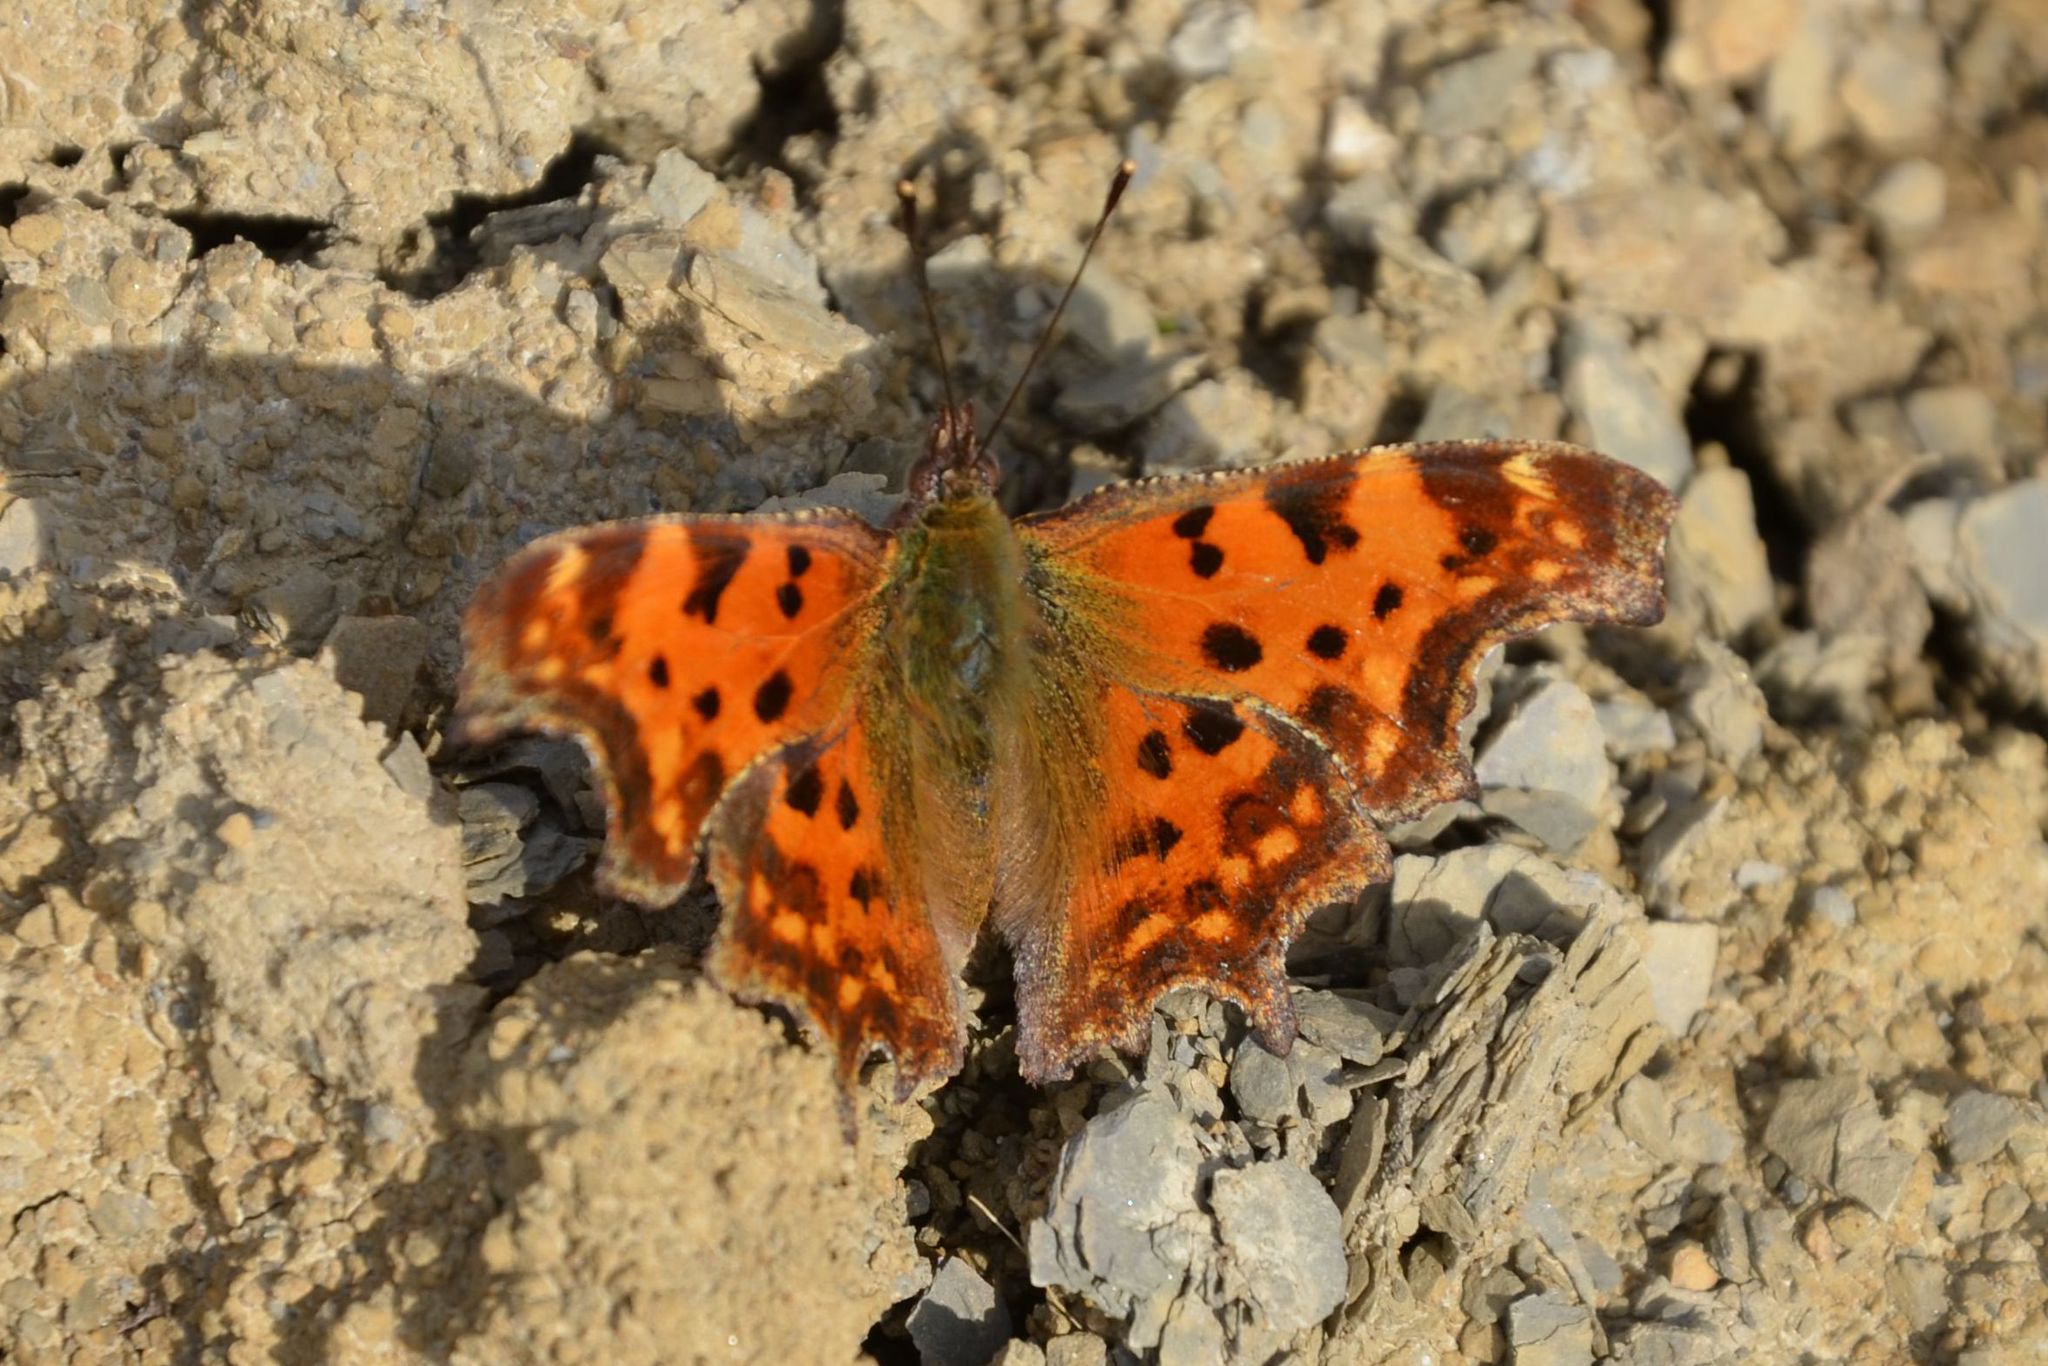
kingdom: Animalia
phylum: Arthropoda
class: Insecta
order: Lepidoptera
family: Nymphalidae
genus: Polygonia
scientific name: Polygonia c-album
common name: Comma
